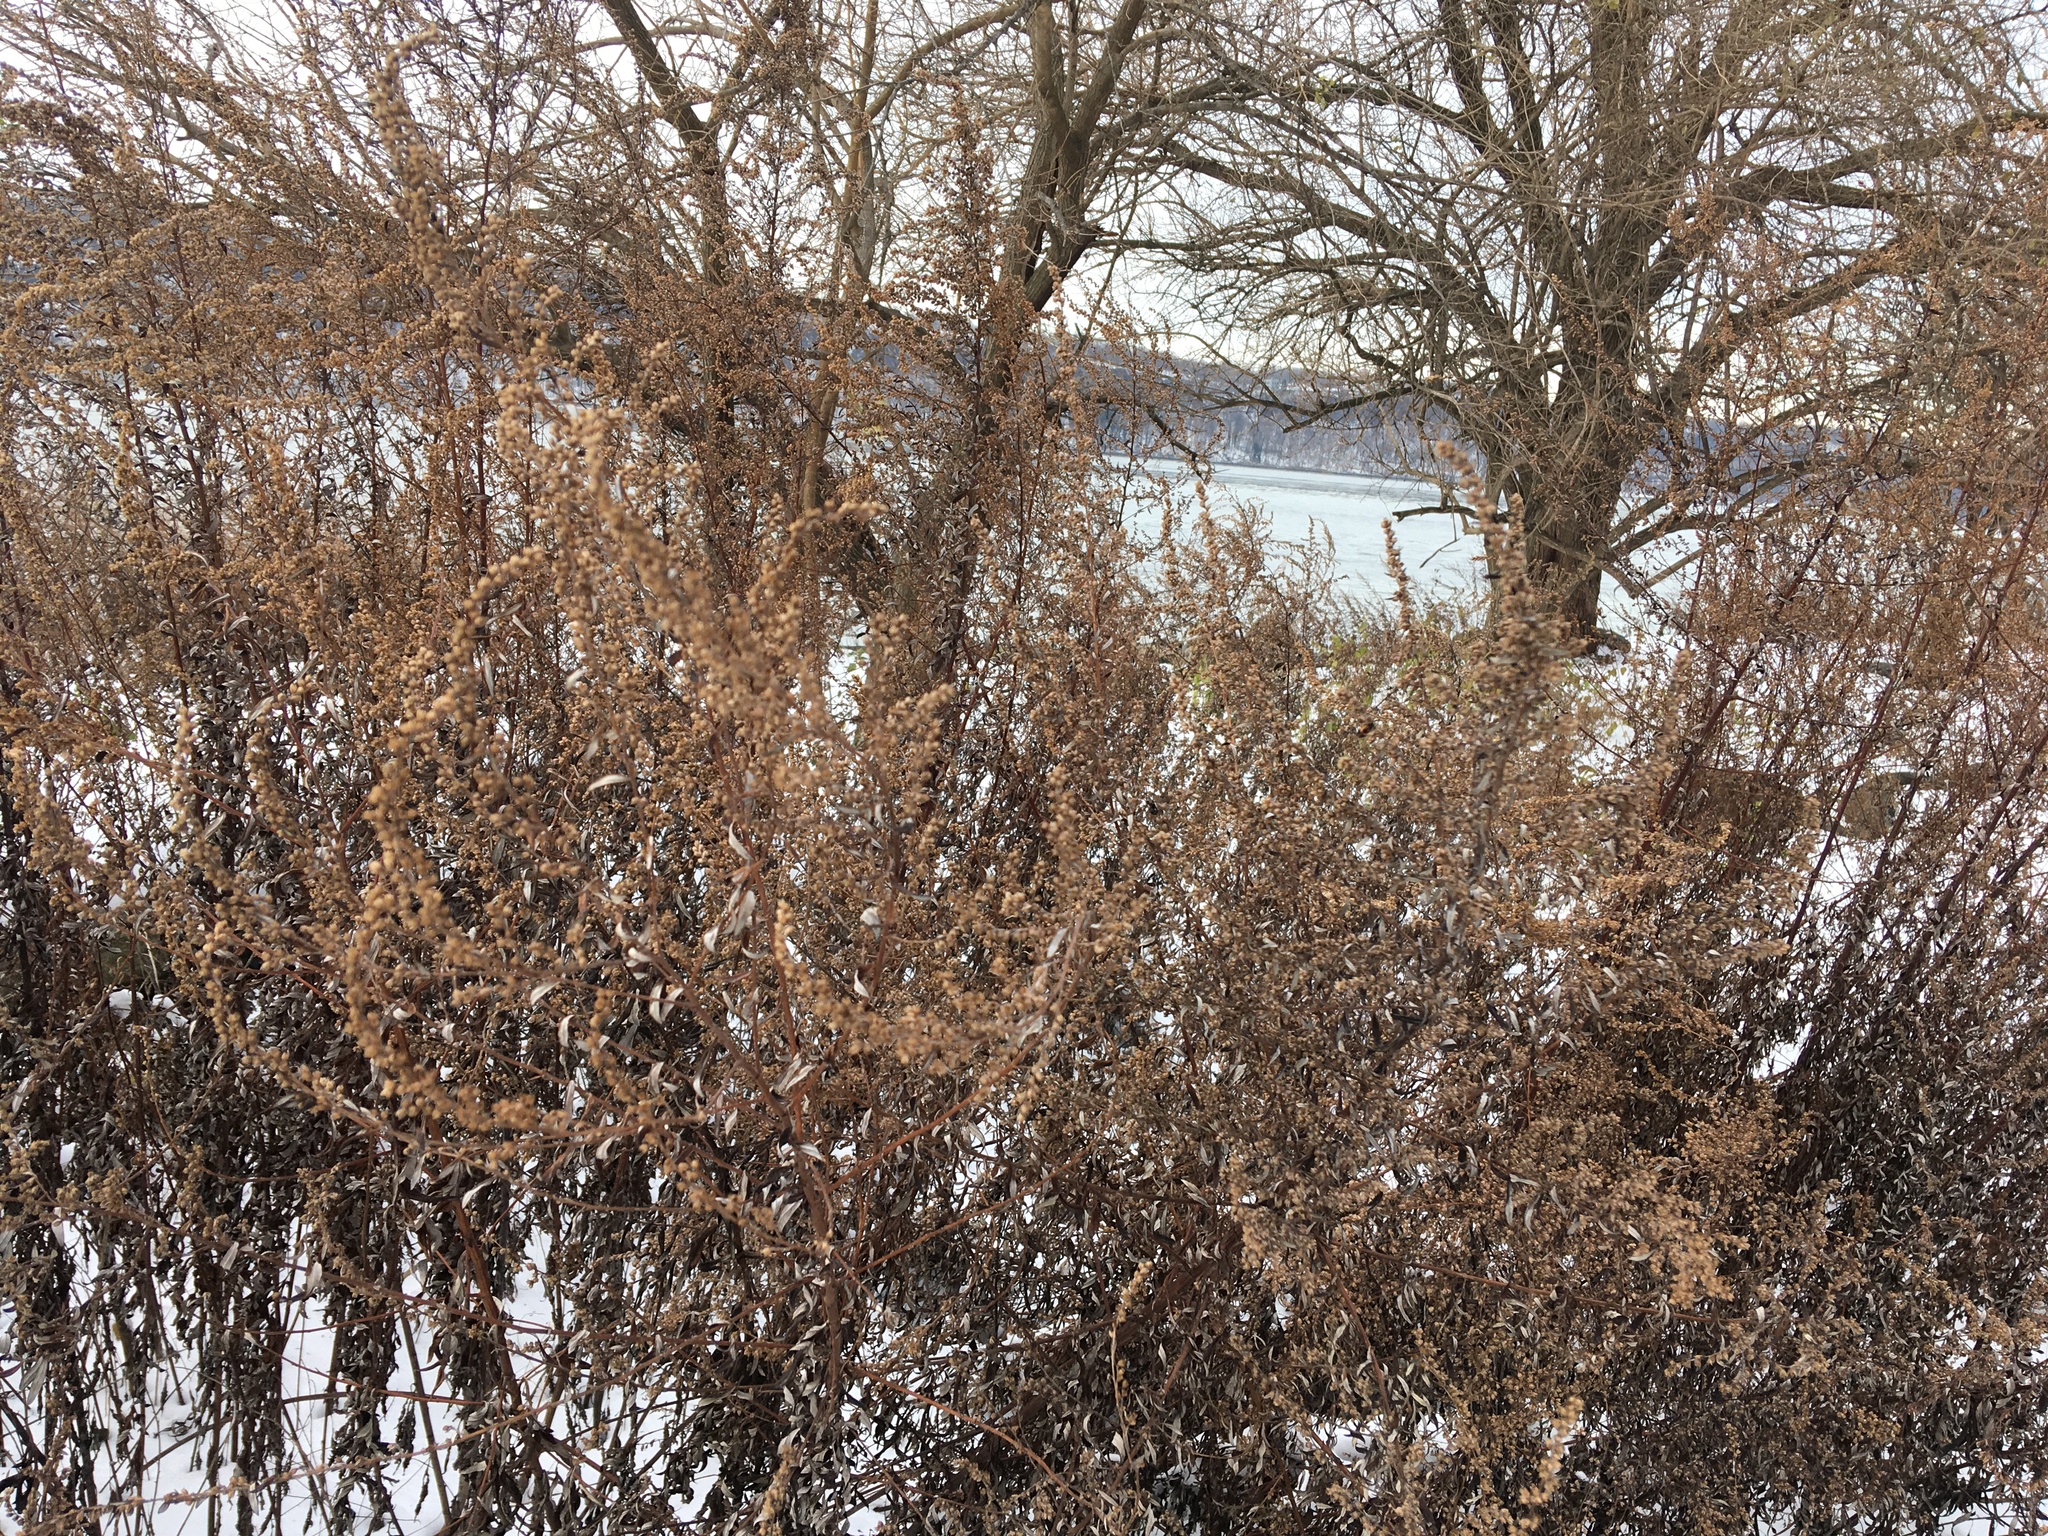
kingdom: Plantae
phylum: Tracheophyta
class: Magnoliopsida
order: Asterales
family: Asteraceae
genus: Artemisia
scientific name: Artemisia vulgaris
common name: Mugwort
